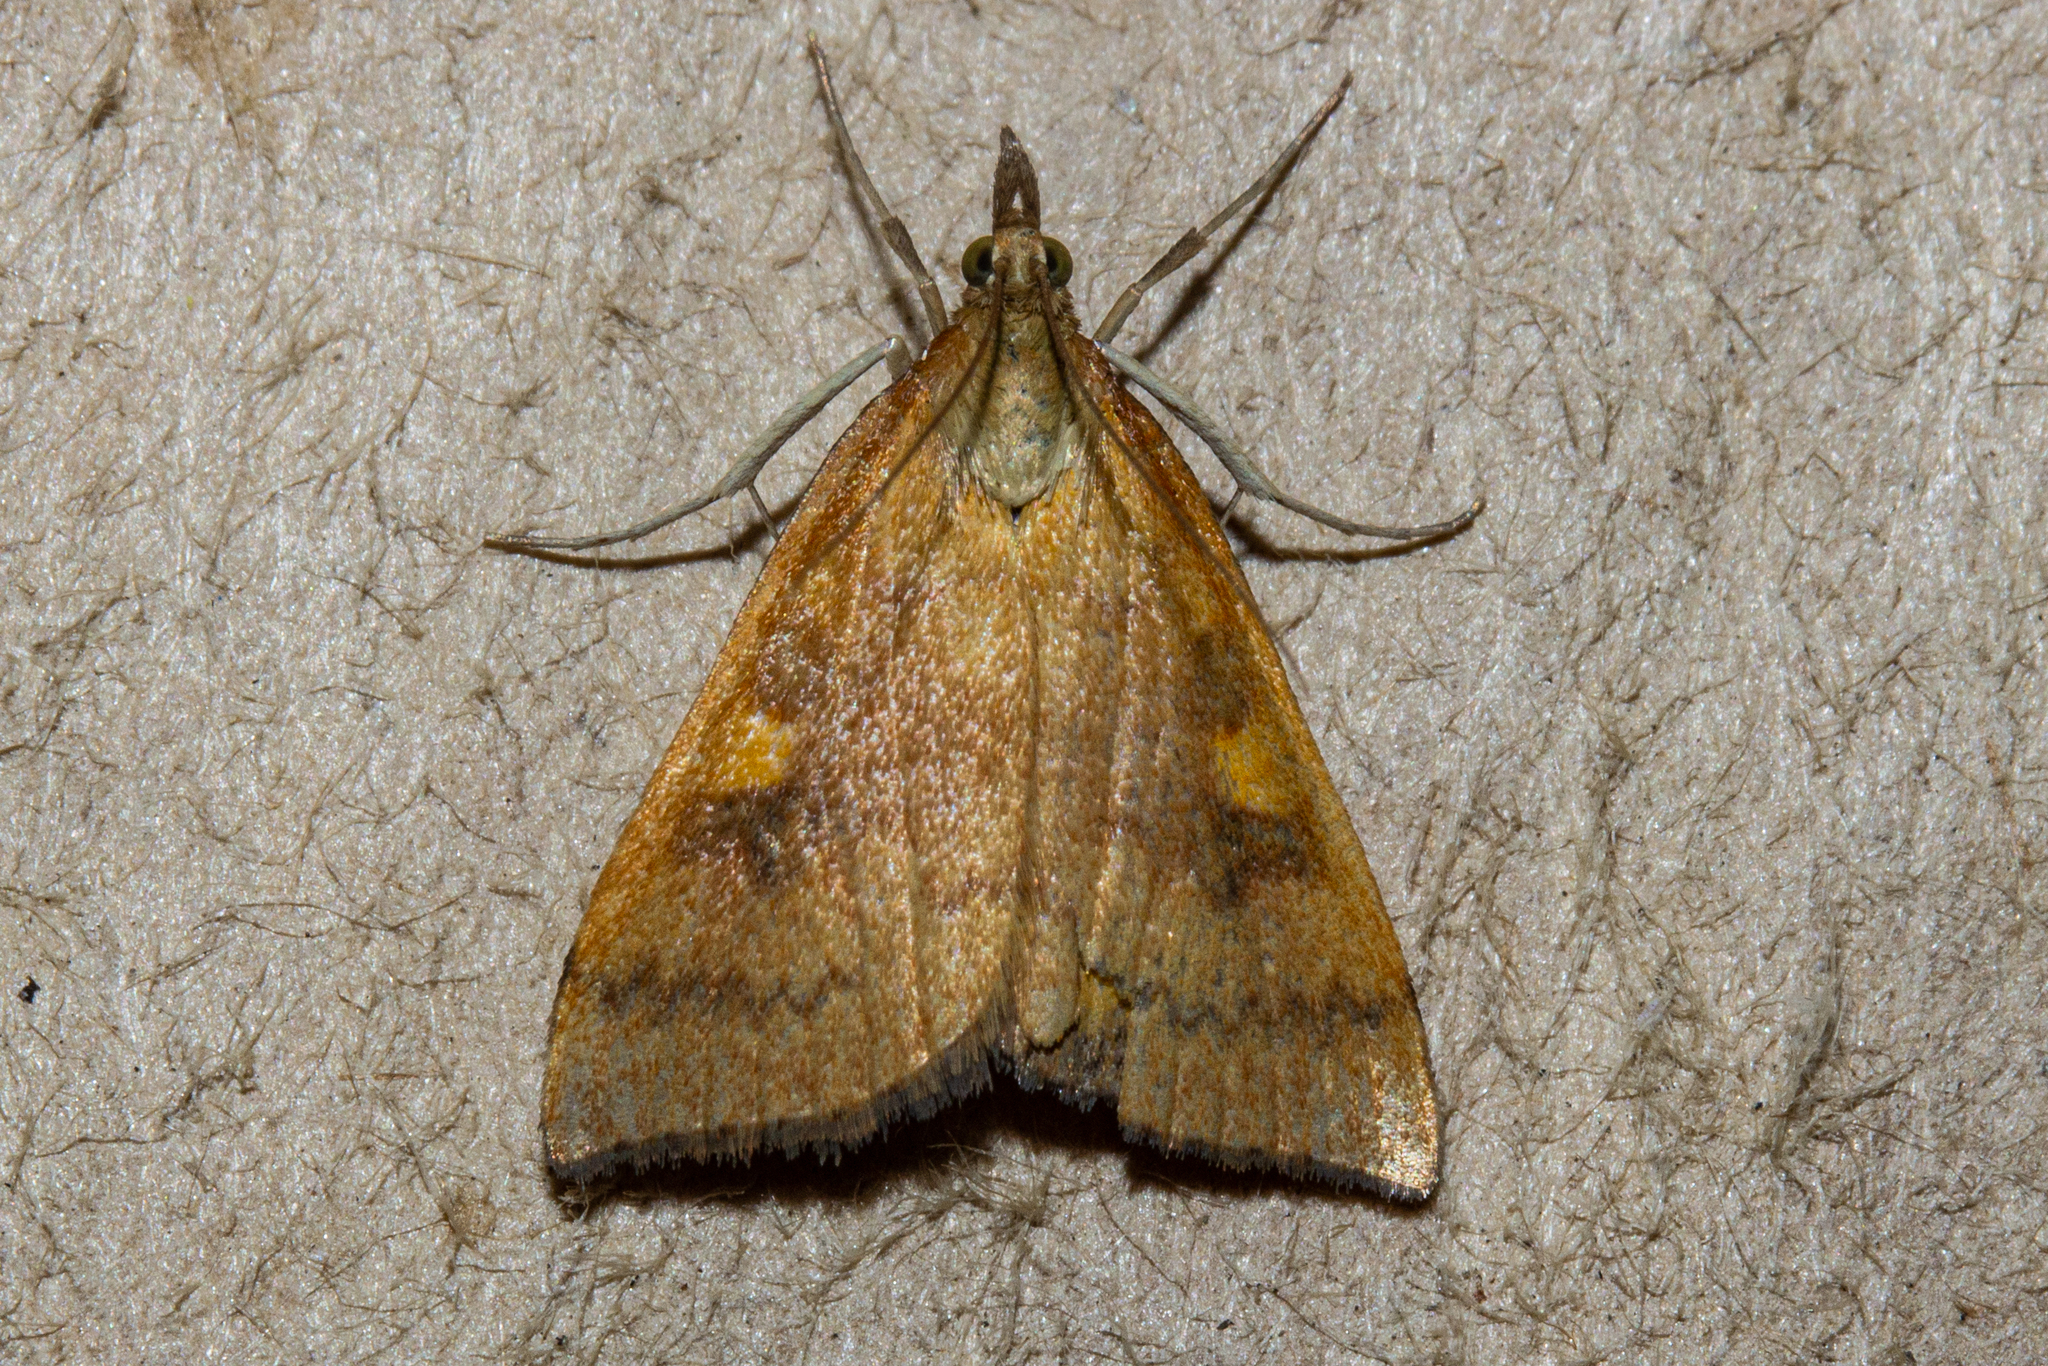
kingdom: Animalia
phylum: Arthropoda
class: Insecta
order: Lepidoptera
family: Crambidae
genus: Udea
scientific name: Udea Mnesictena flavidalis
